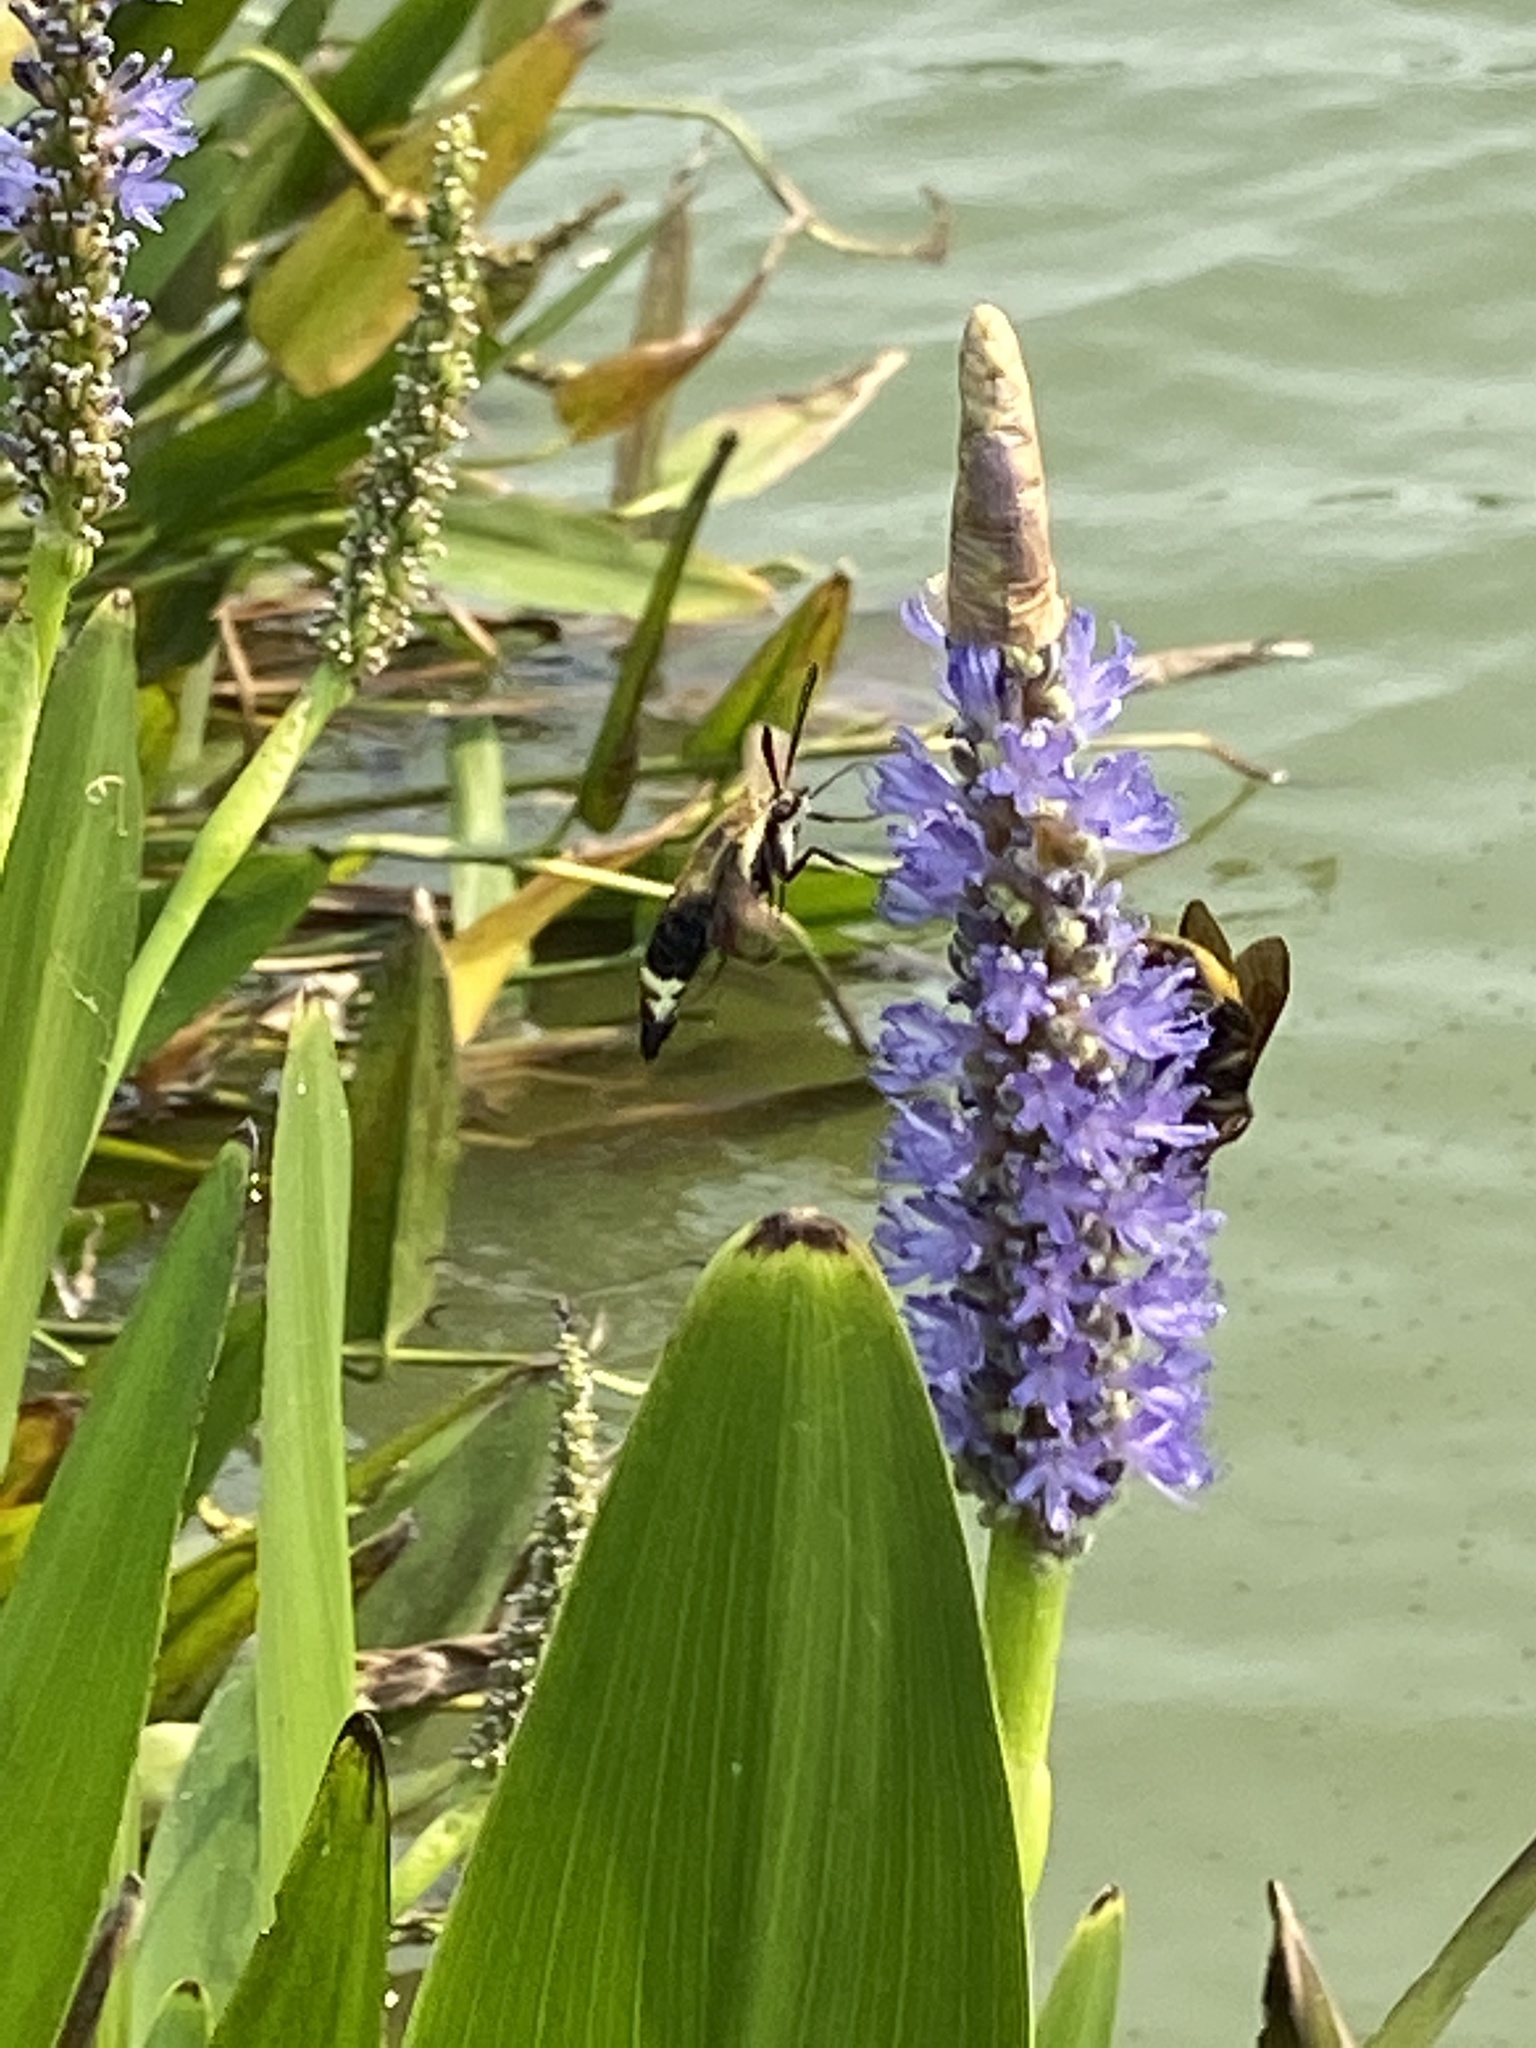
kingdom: Animalia
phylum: Arthropoda
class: Insecta
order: Lepidoptera
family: Sphingidae
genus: Hemaris
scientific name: Hemaris diffinis
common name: Bumblebee moth
